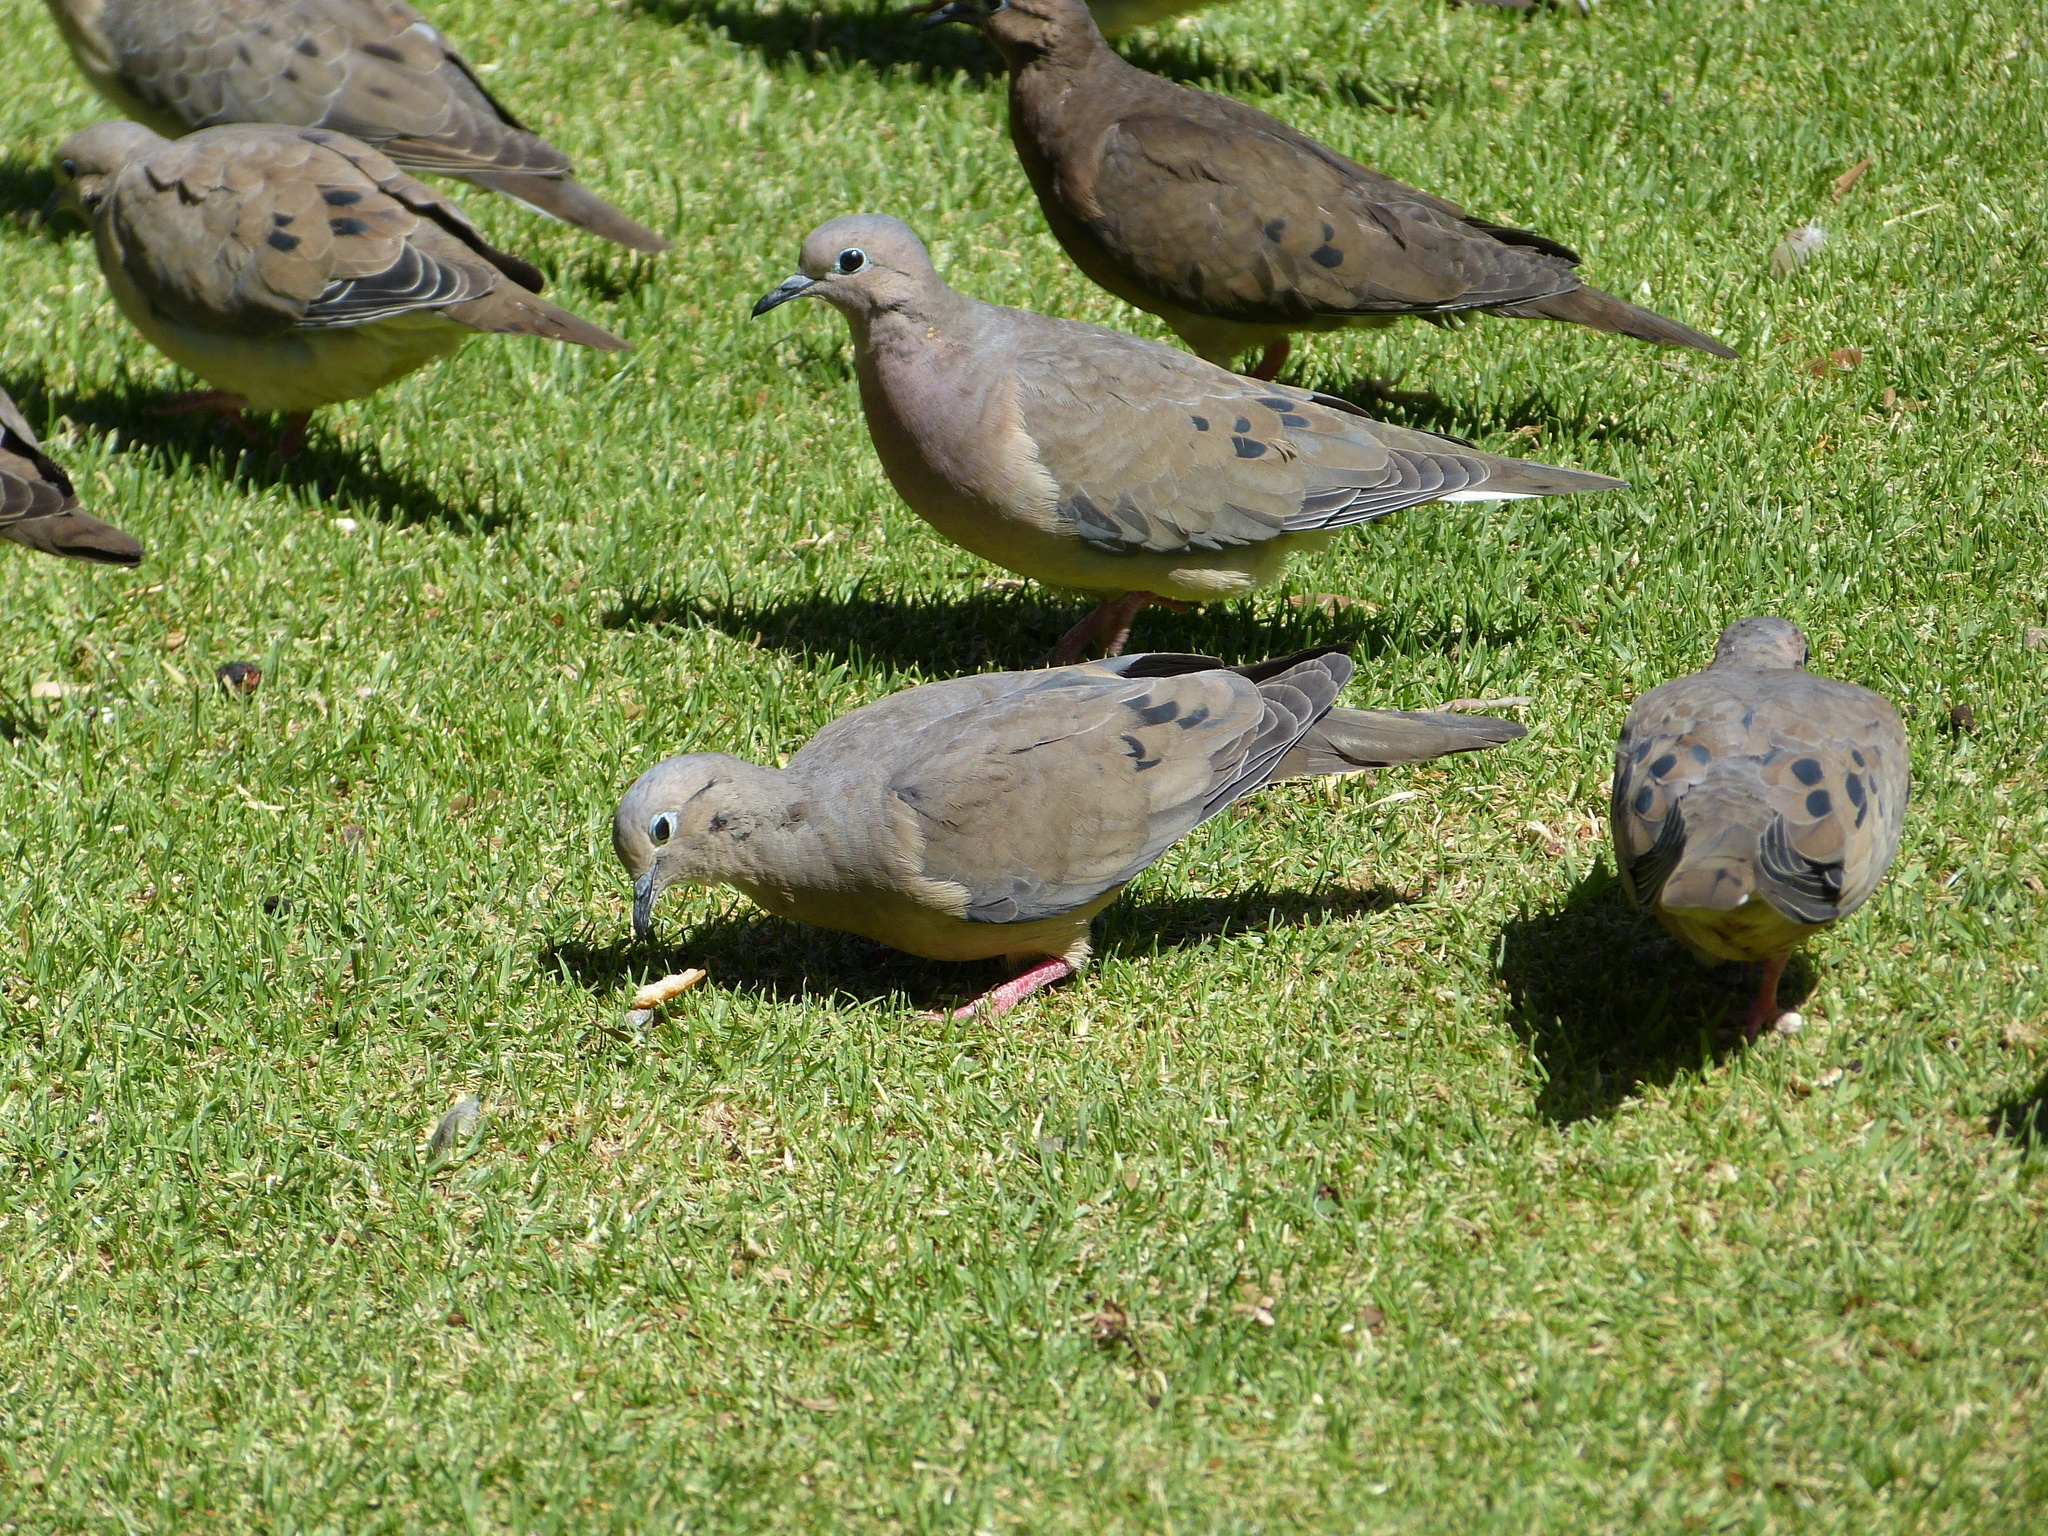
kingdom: Animalia
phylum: Chordata
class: Aves
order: Columbiformes
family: Columbidae
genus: Zenaida
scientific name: Zenaida auriculata
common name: Eared dove
